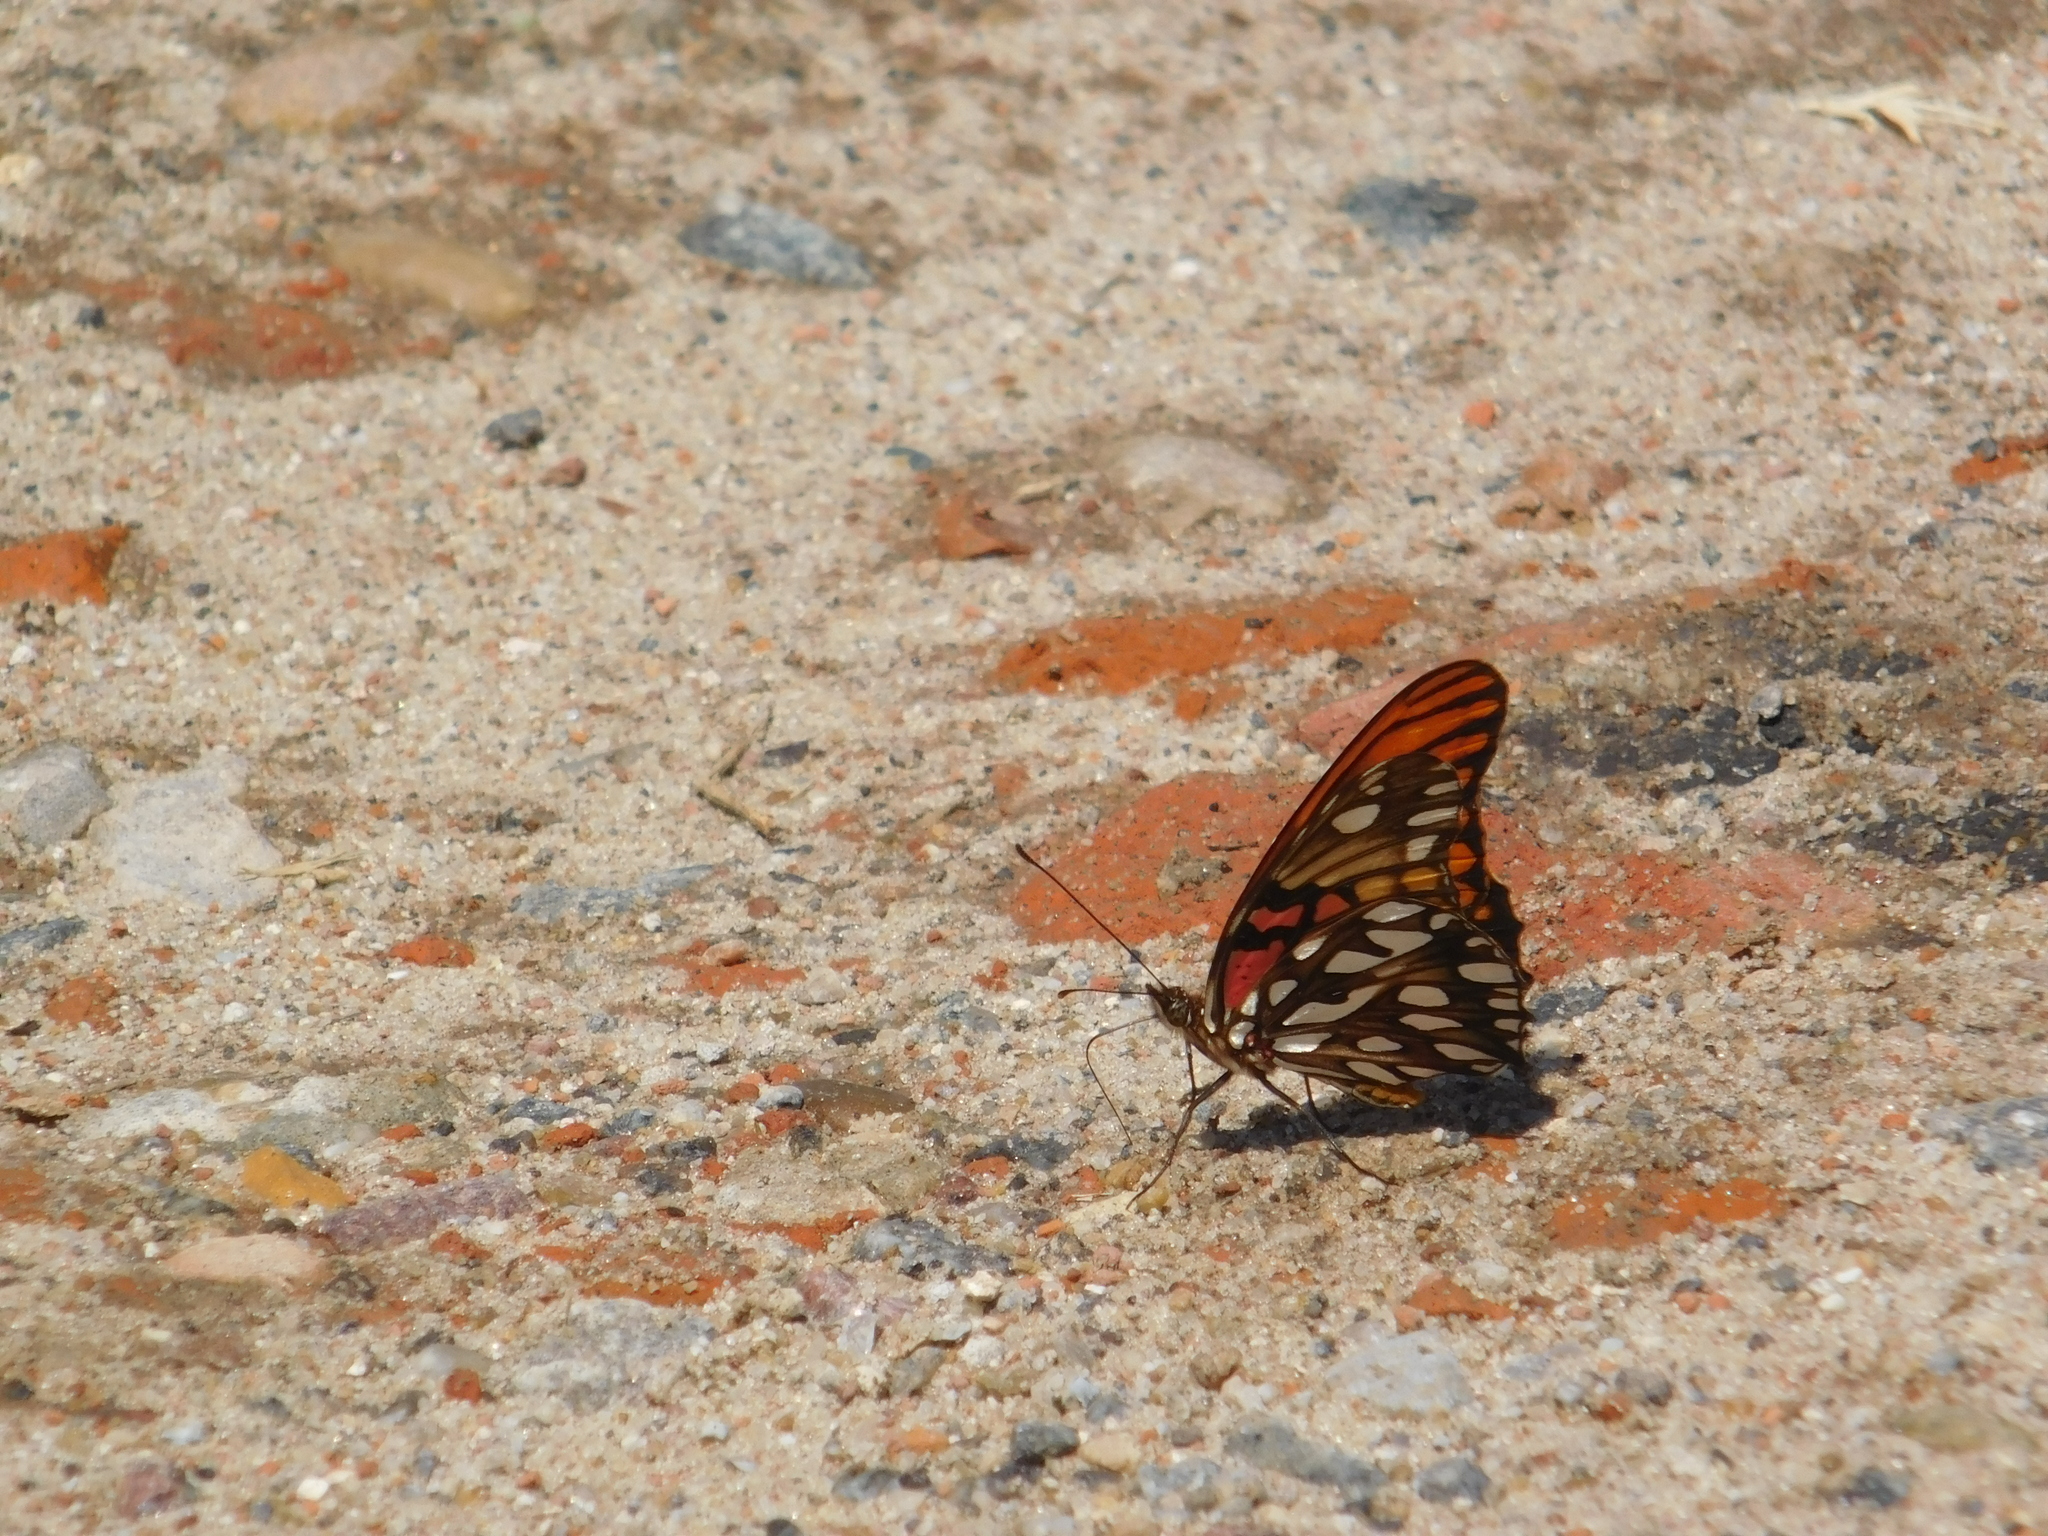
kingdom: Animalia
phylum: Arthropoda
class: Insecta
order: Lepidoptera
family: Nymphalidae
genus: Dione
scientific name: Dione moneta
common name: Mexican silverspot
